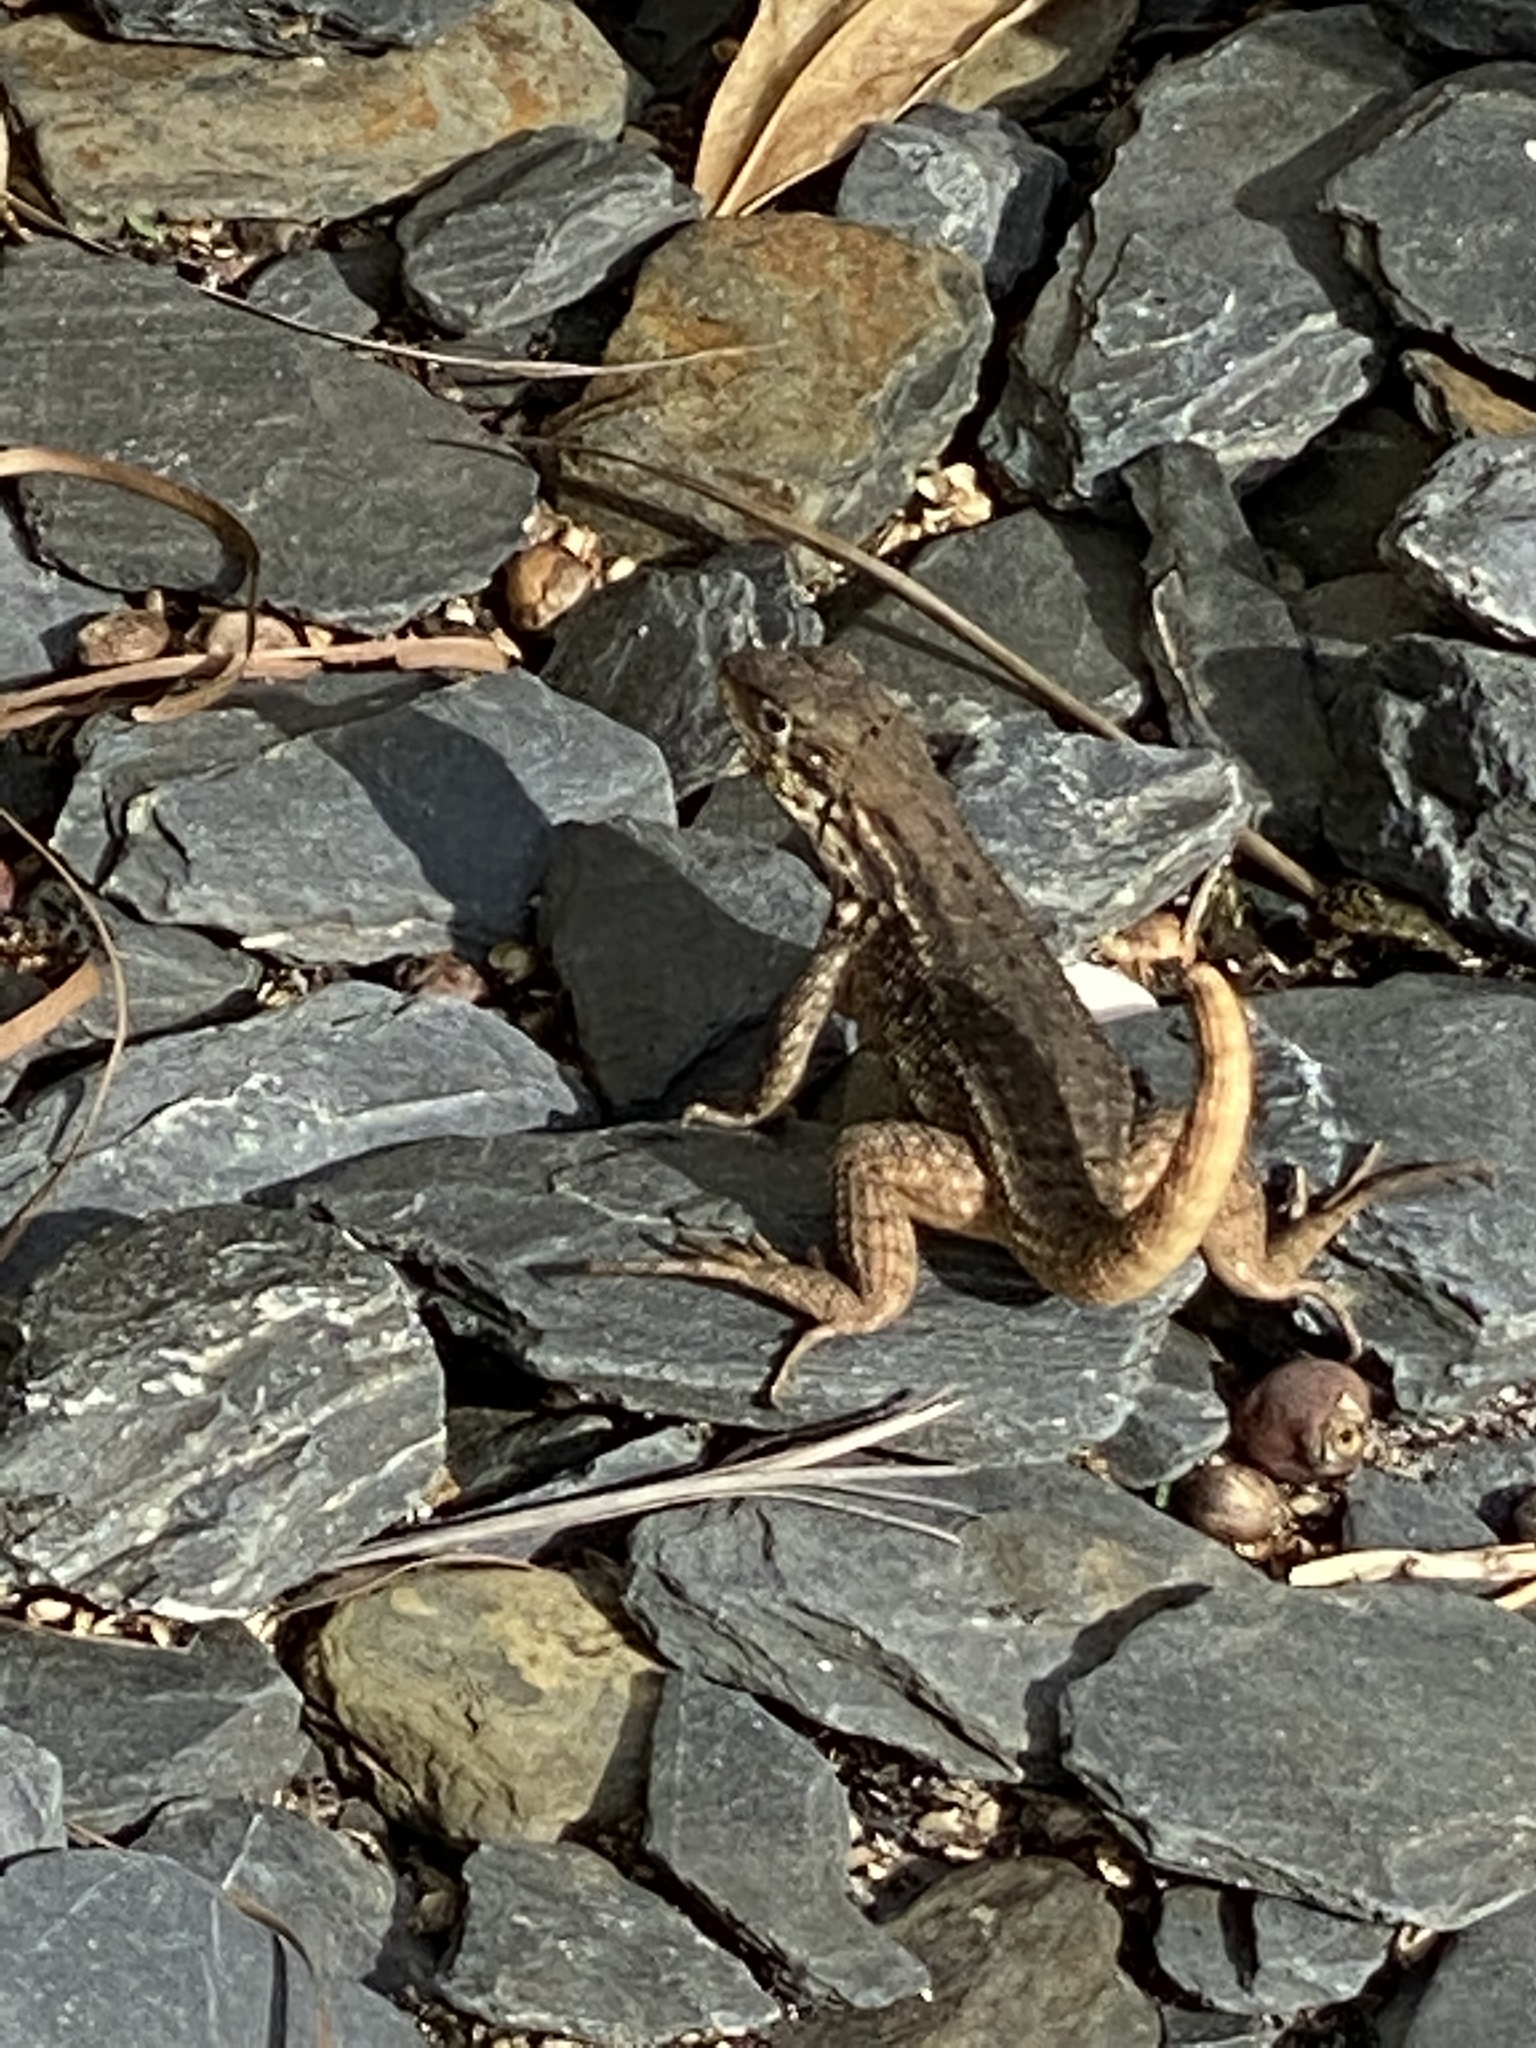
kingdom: Animalia
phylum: Chordata
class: Squamata
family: Leiocephalidae
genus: Leiocephalus
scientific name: Leiocephalus carinatus
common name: Northern curly-tailed lizard
